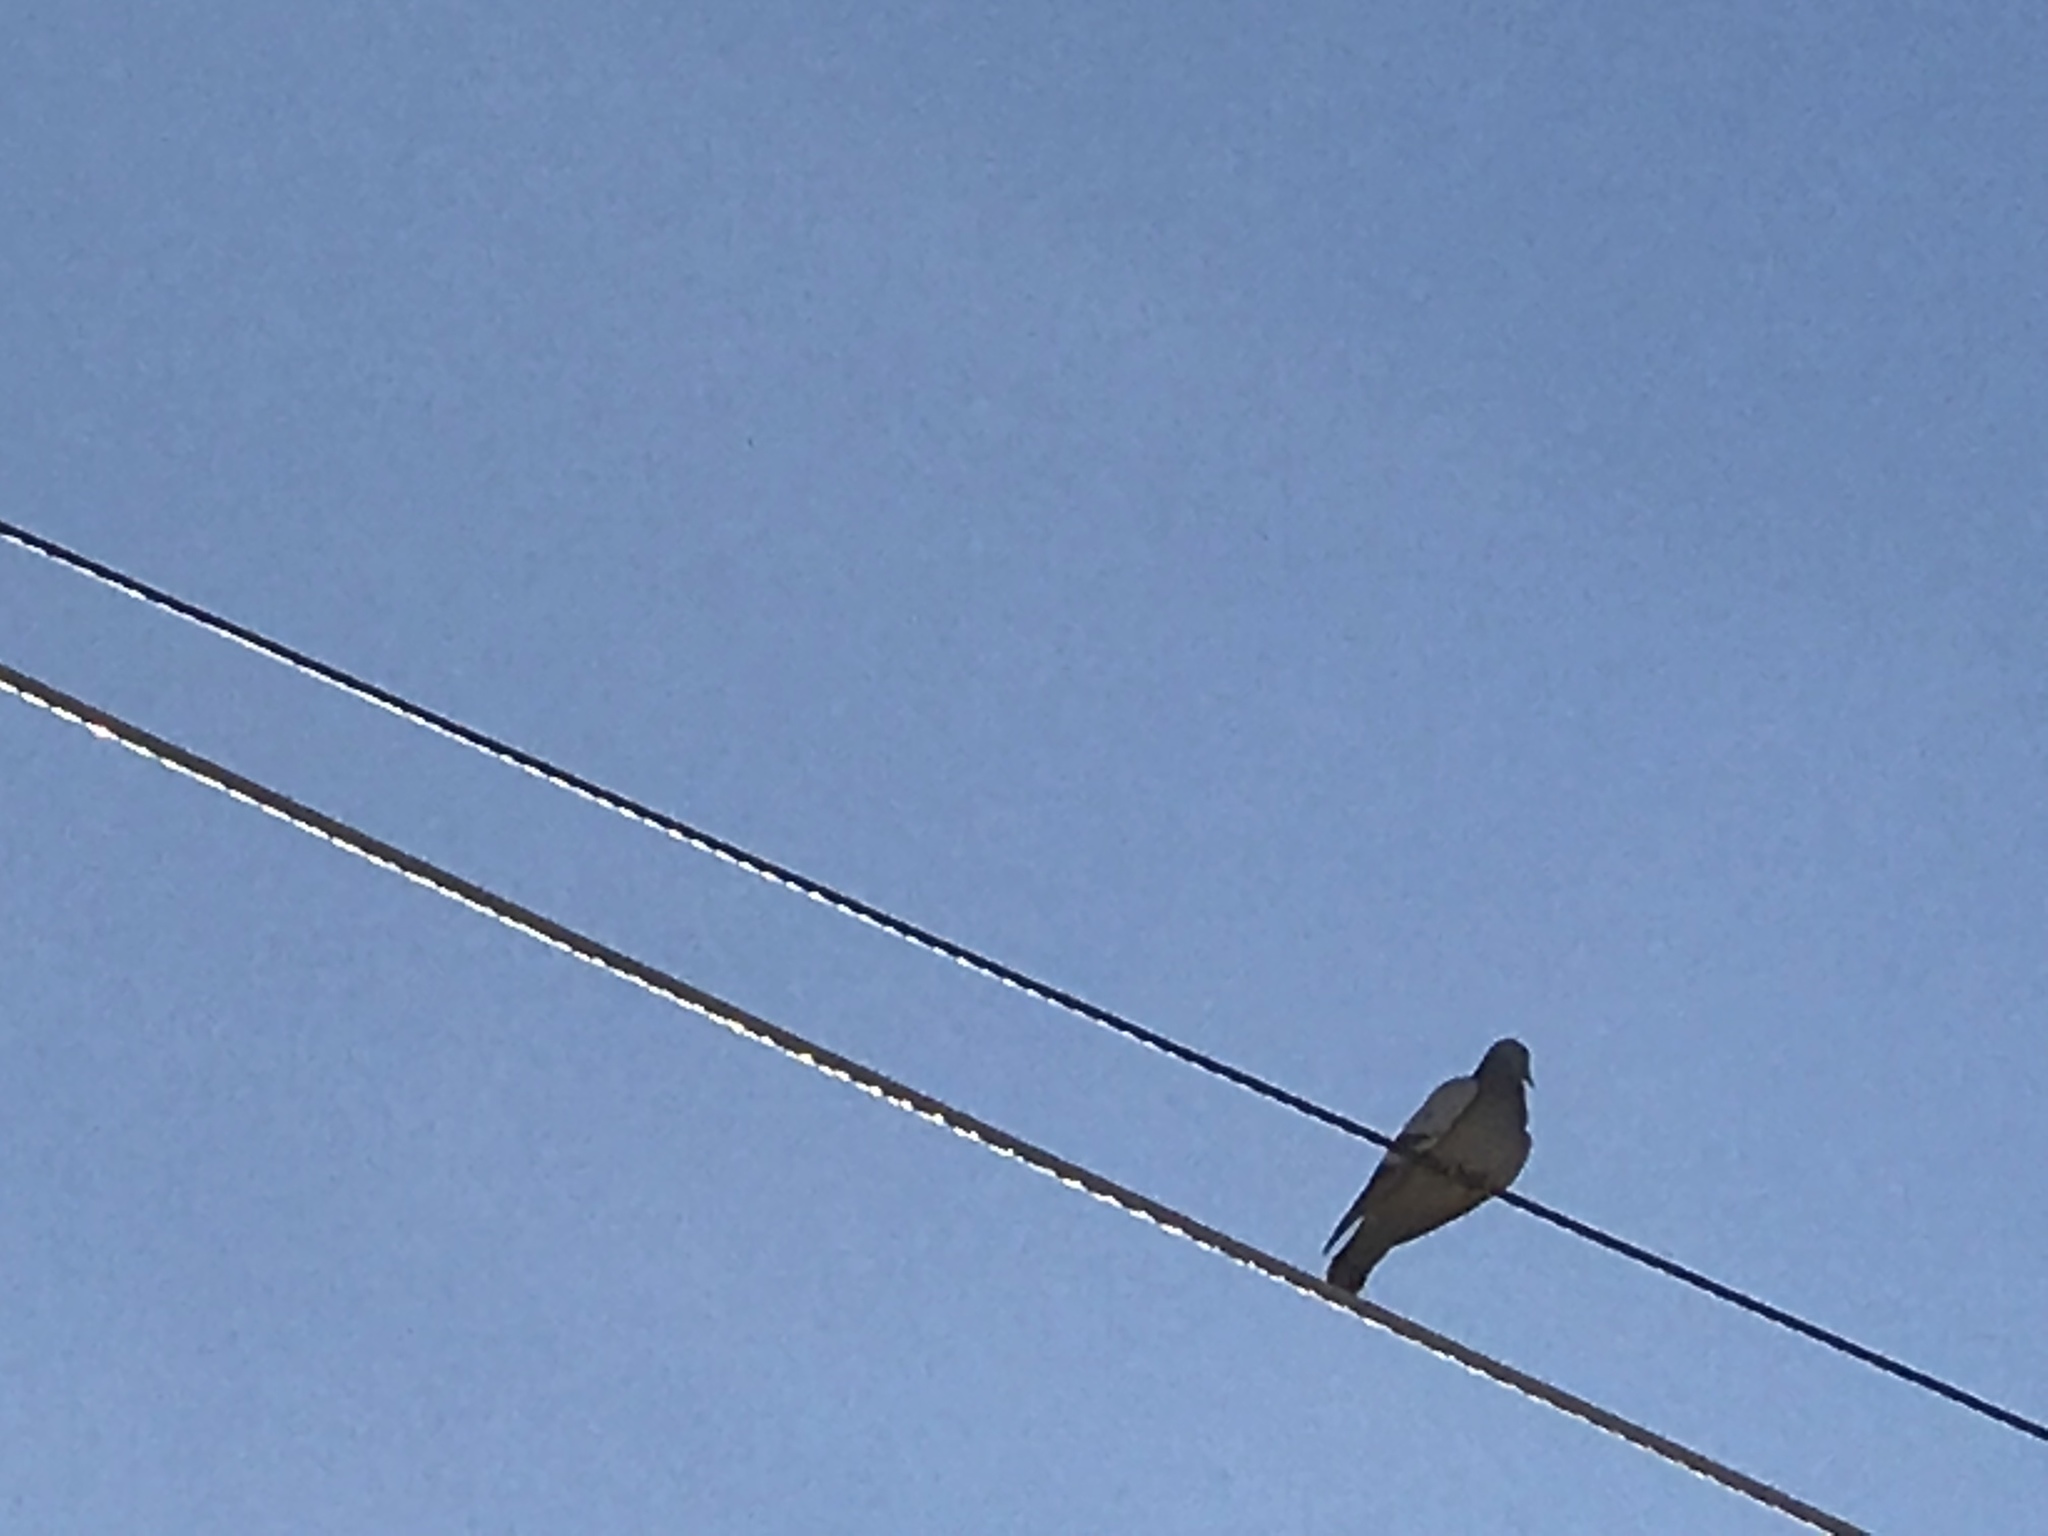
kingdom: Animalia
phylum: Chordata
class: Aves
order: Columbiformes
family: Columbidae
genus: Columba
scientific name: Columba livia
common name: Rock pigeon
